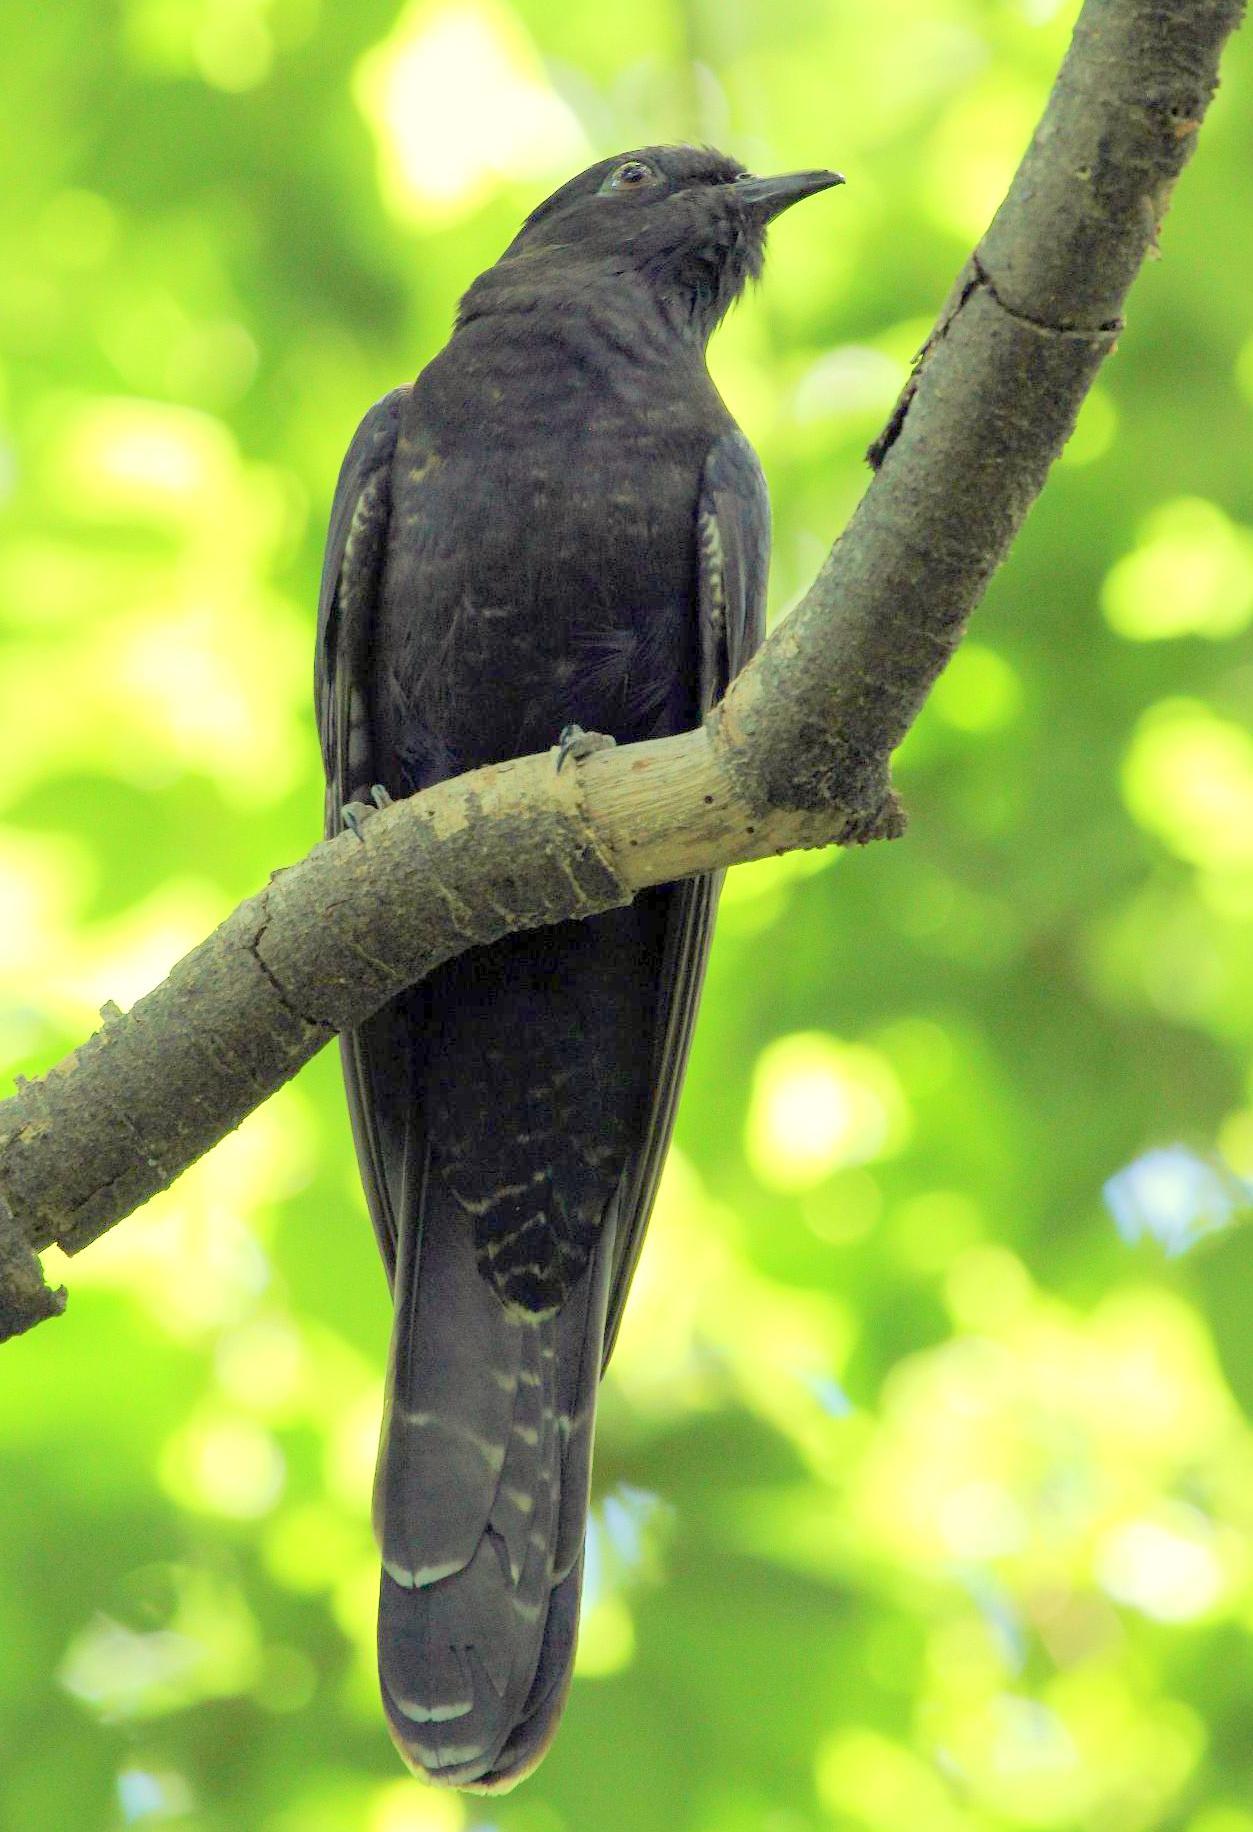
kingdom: Animalia
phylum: Chordata
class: Aves
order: Cuculiformes
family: Cuculidae
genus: Cuculus
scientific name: Cuculus clamosus
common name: Black cuckoo
